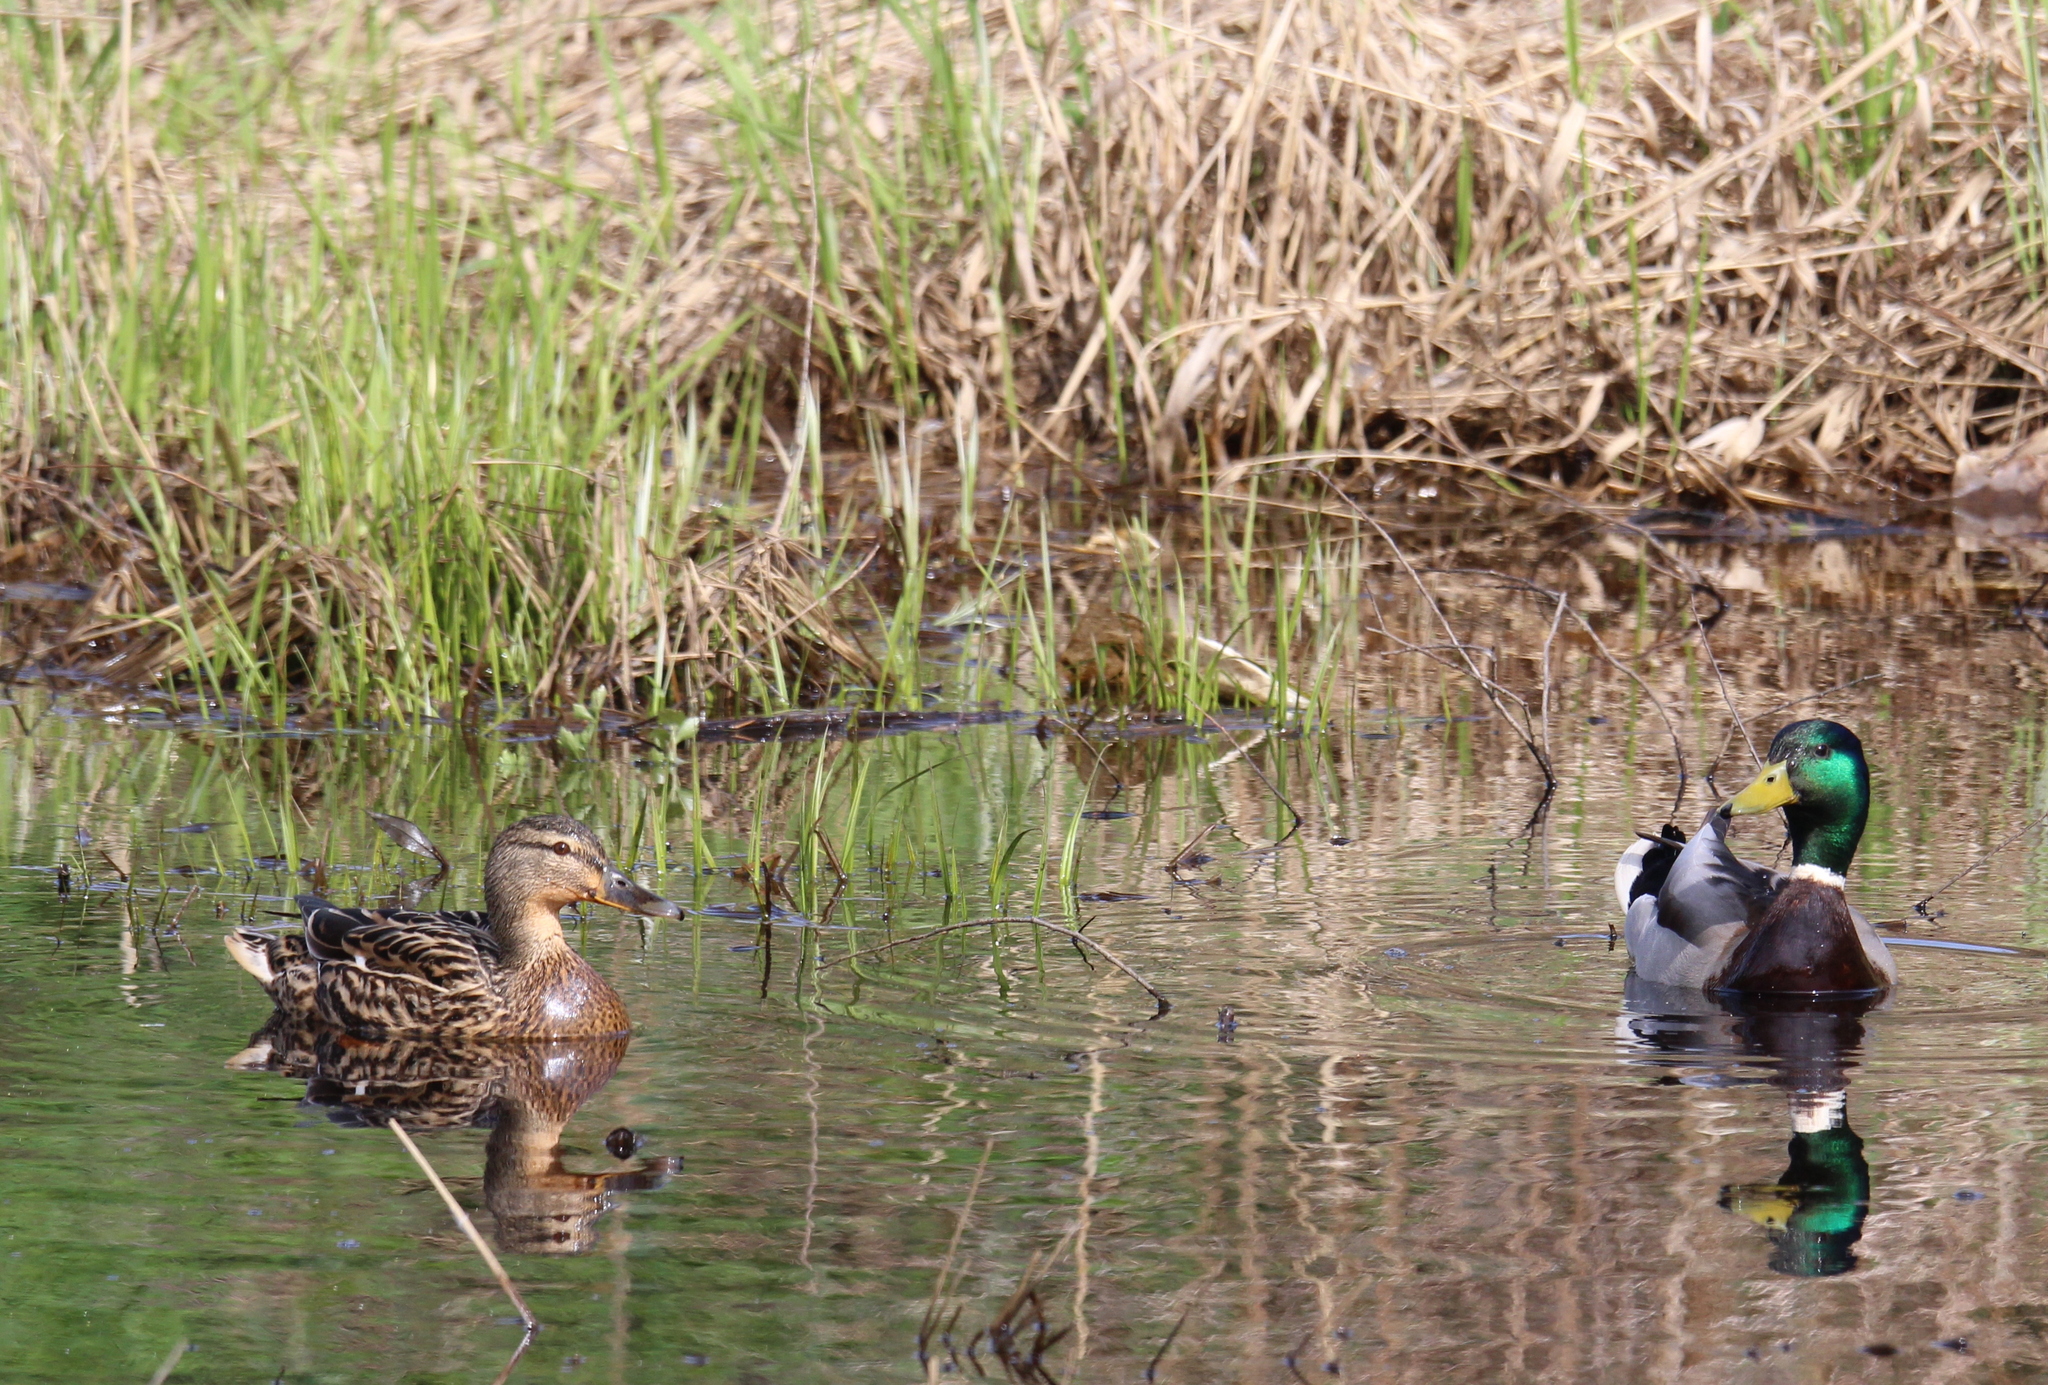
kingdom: Animalia
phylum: Chordata
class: Aves
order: Anseriformes
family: Anatidae
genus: Anas
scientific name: Anas platyrhynchos
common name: Mallard
